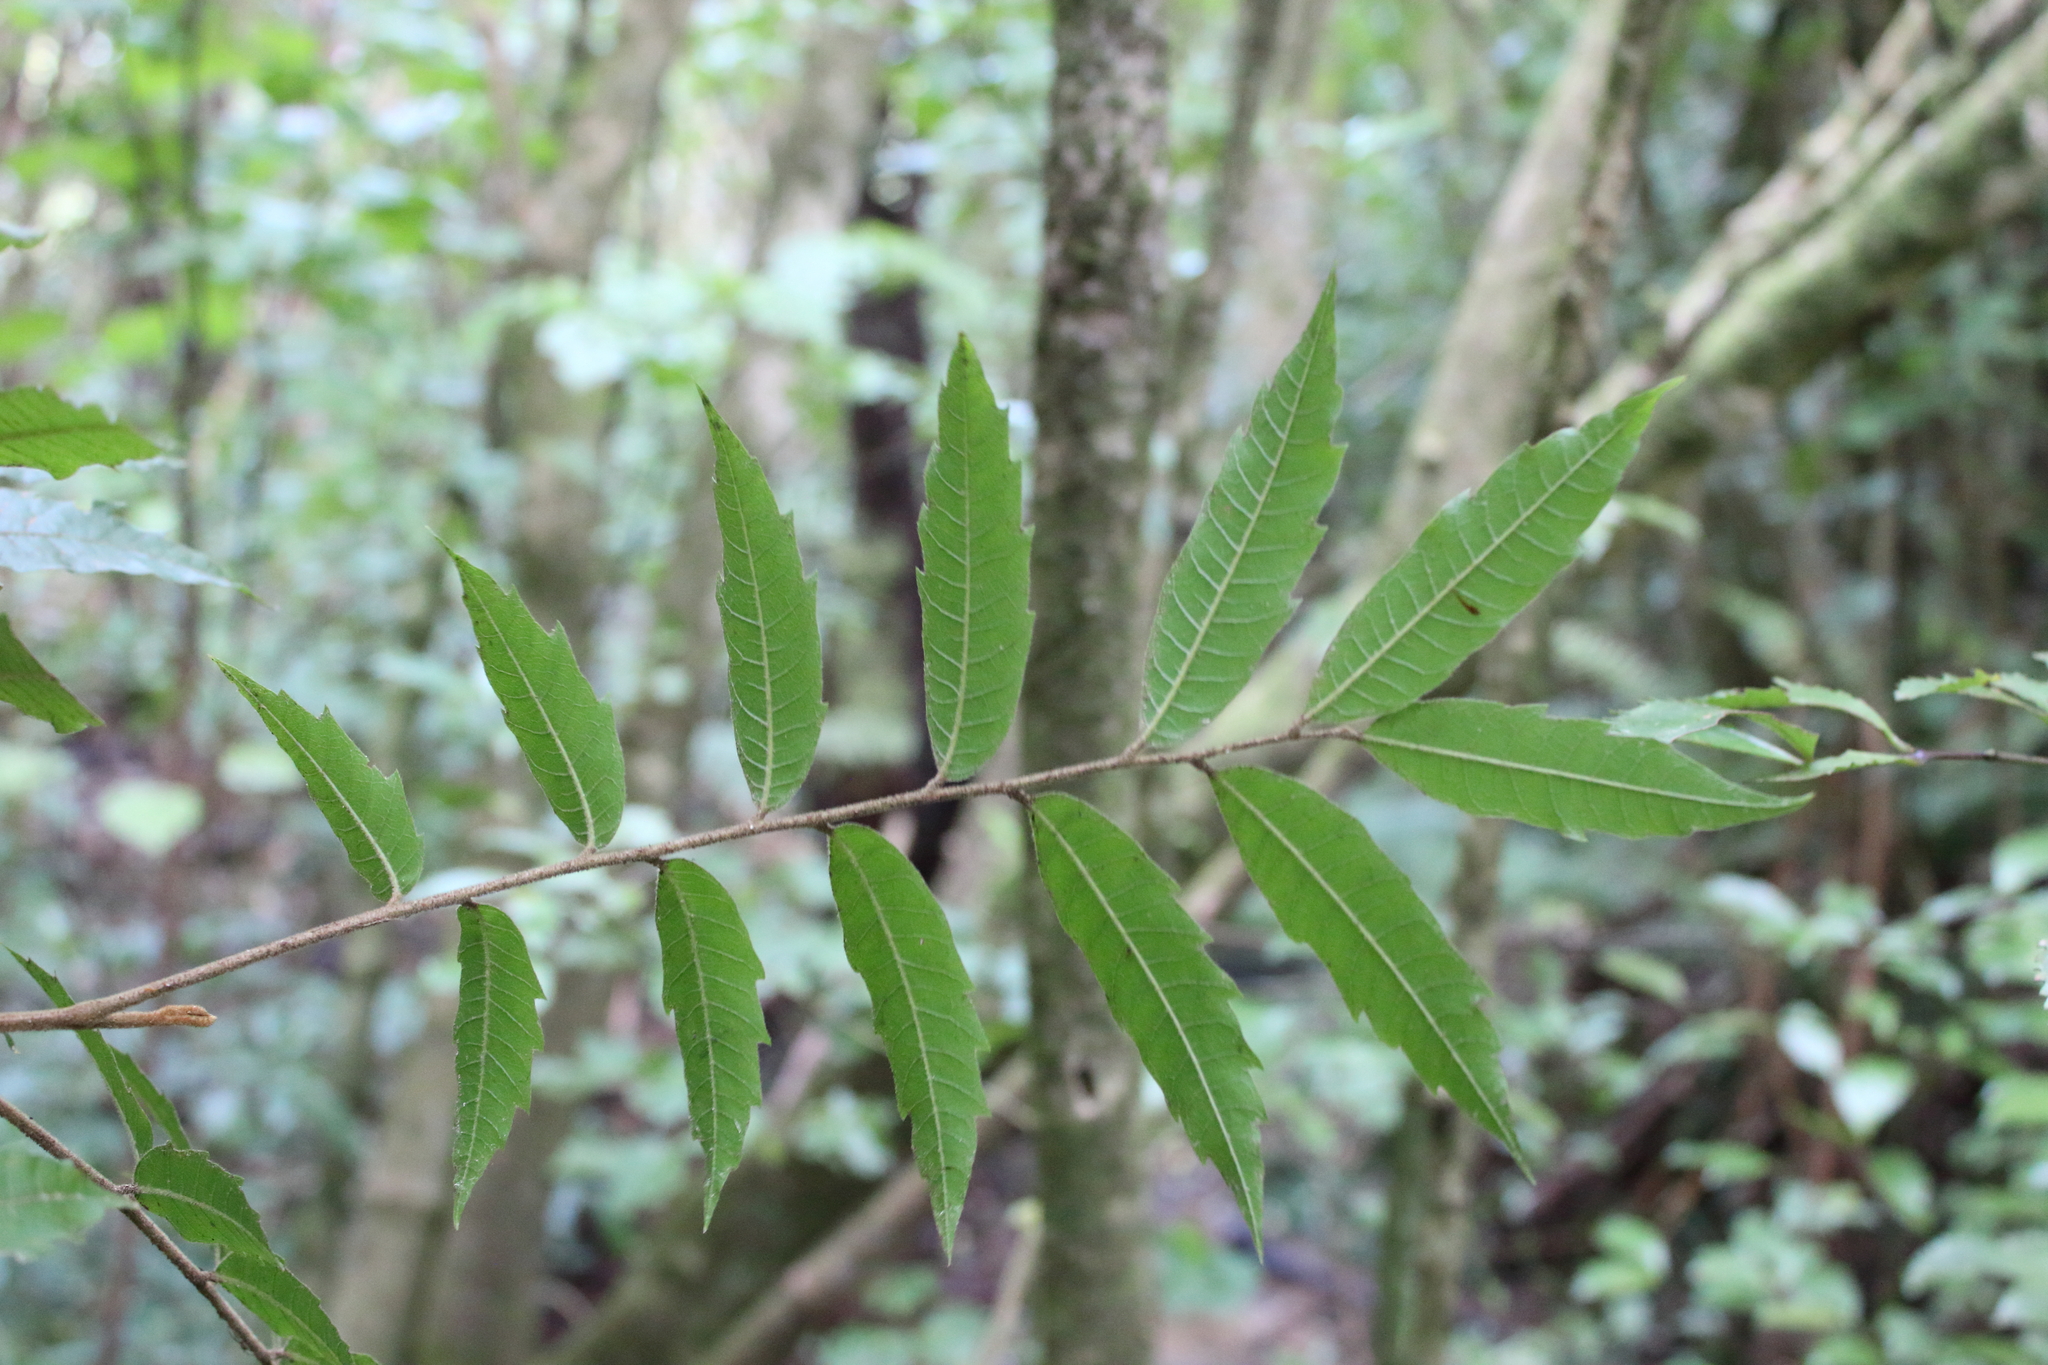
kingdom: Plantae
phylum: Tracheophyta
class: Magnoliopsida
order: Sapindales
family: Sapindaceae
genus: Alectryon
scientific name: Alectryon excelsus
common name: Three kings titoki
